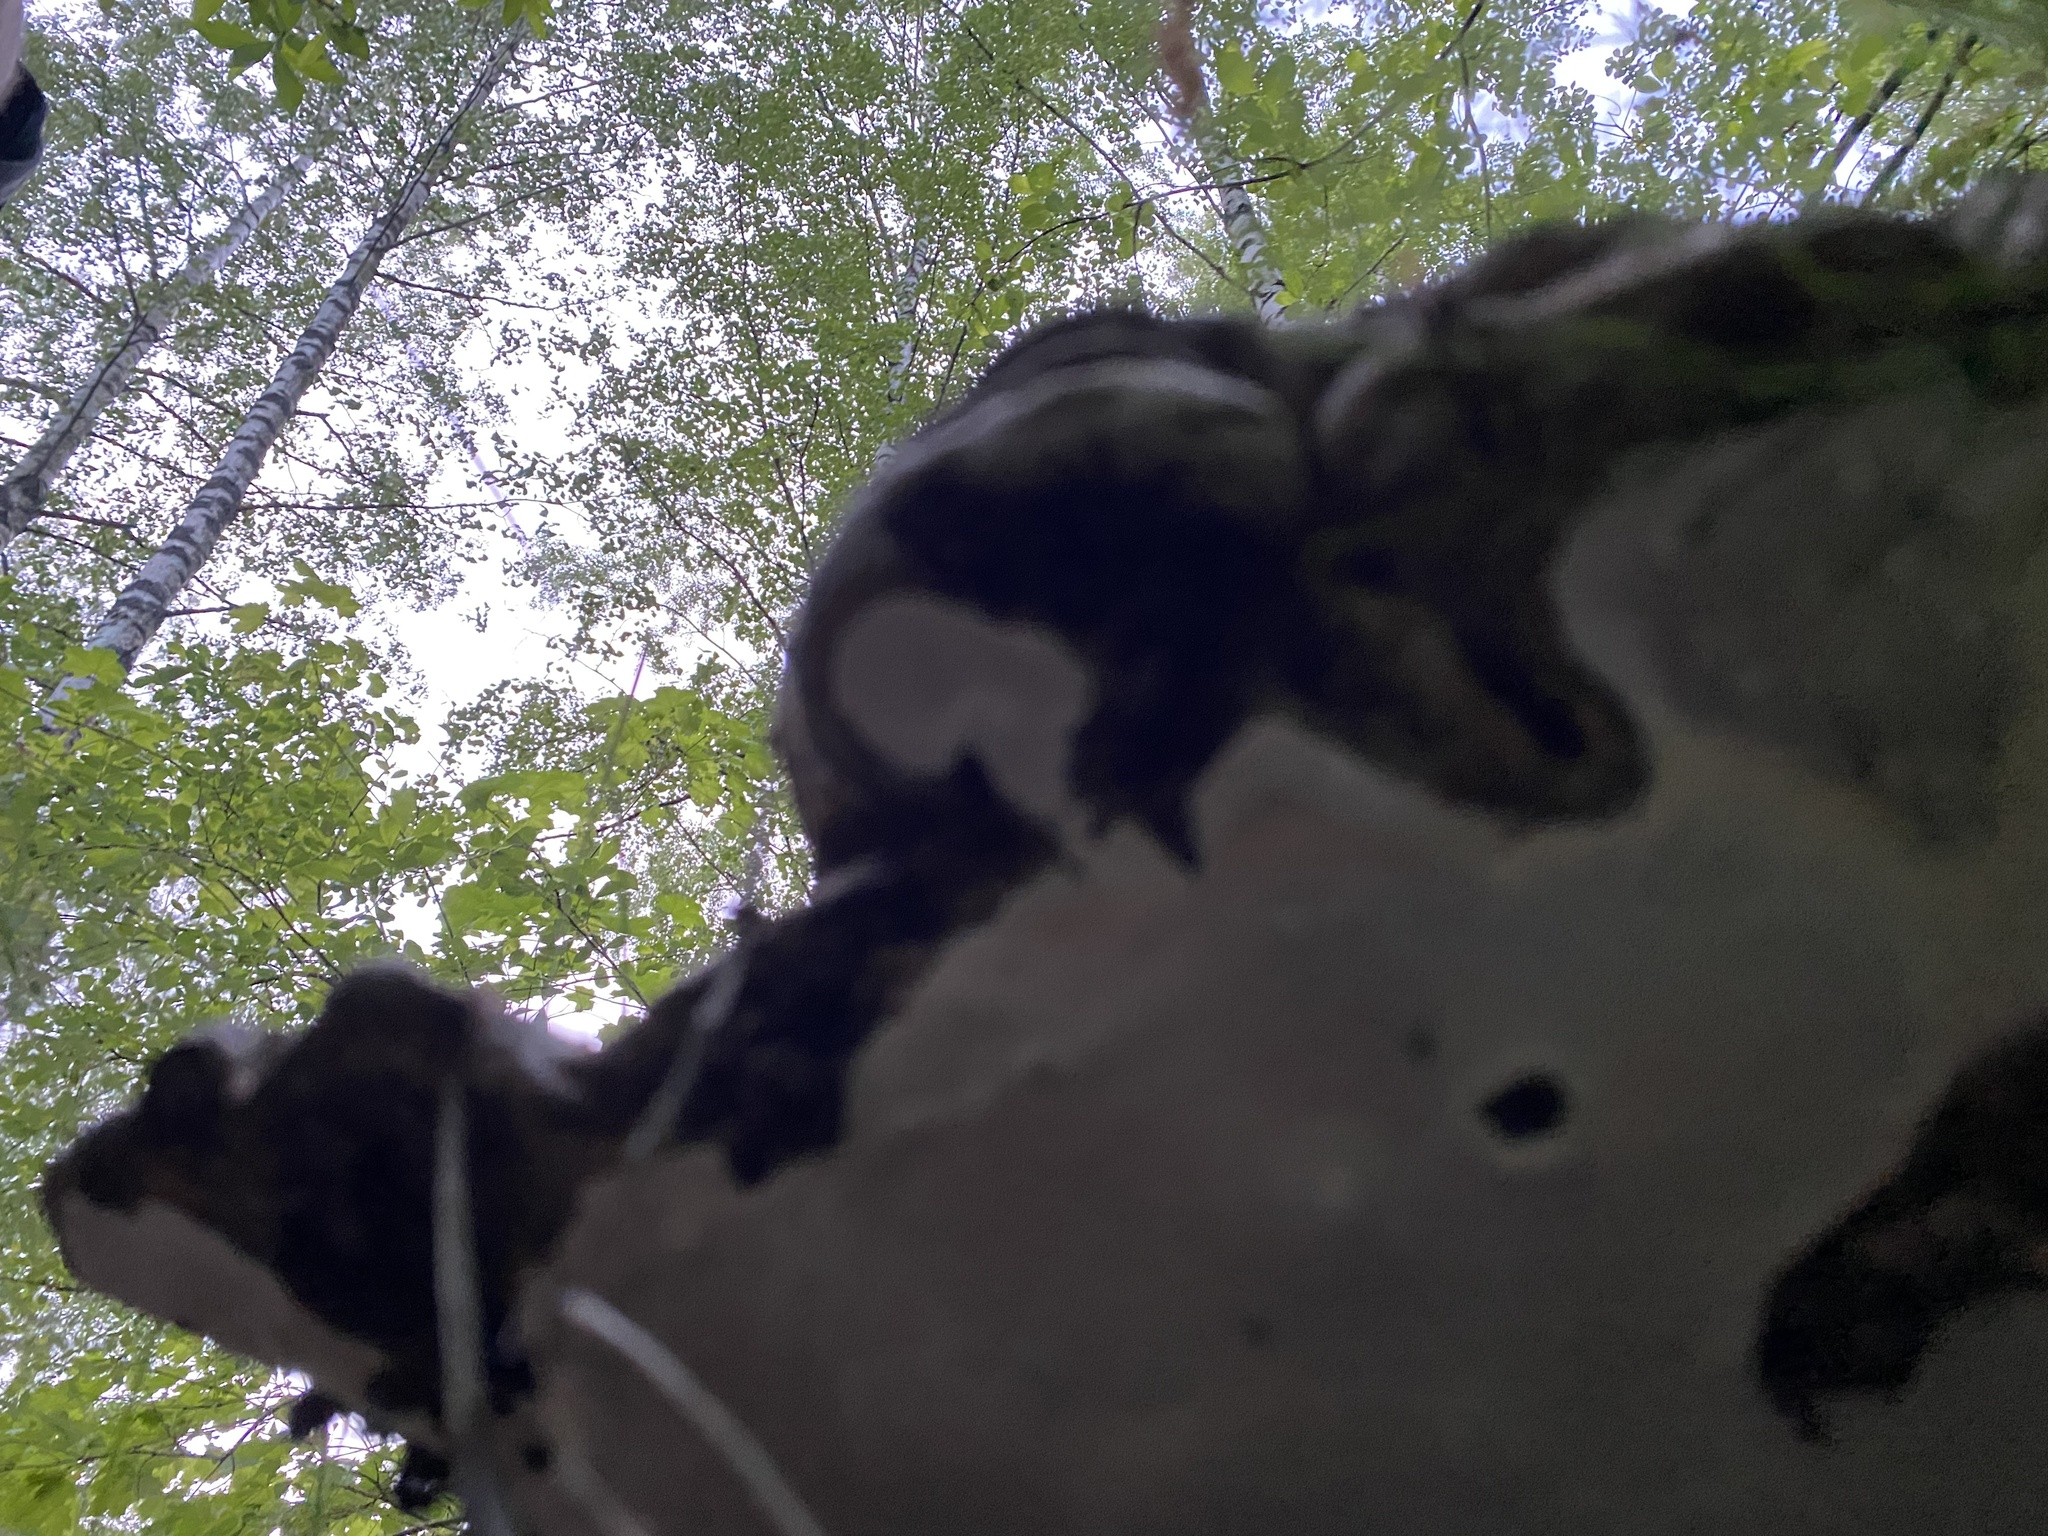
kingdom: Fungi
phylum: Basidiomycota
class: Agaricomycetes
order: Polyporales
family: Polyporaceae
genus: Ganoderma
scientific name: Ganoderma applanatum
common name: Artist's bracket
